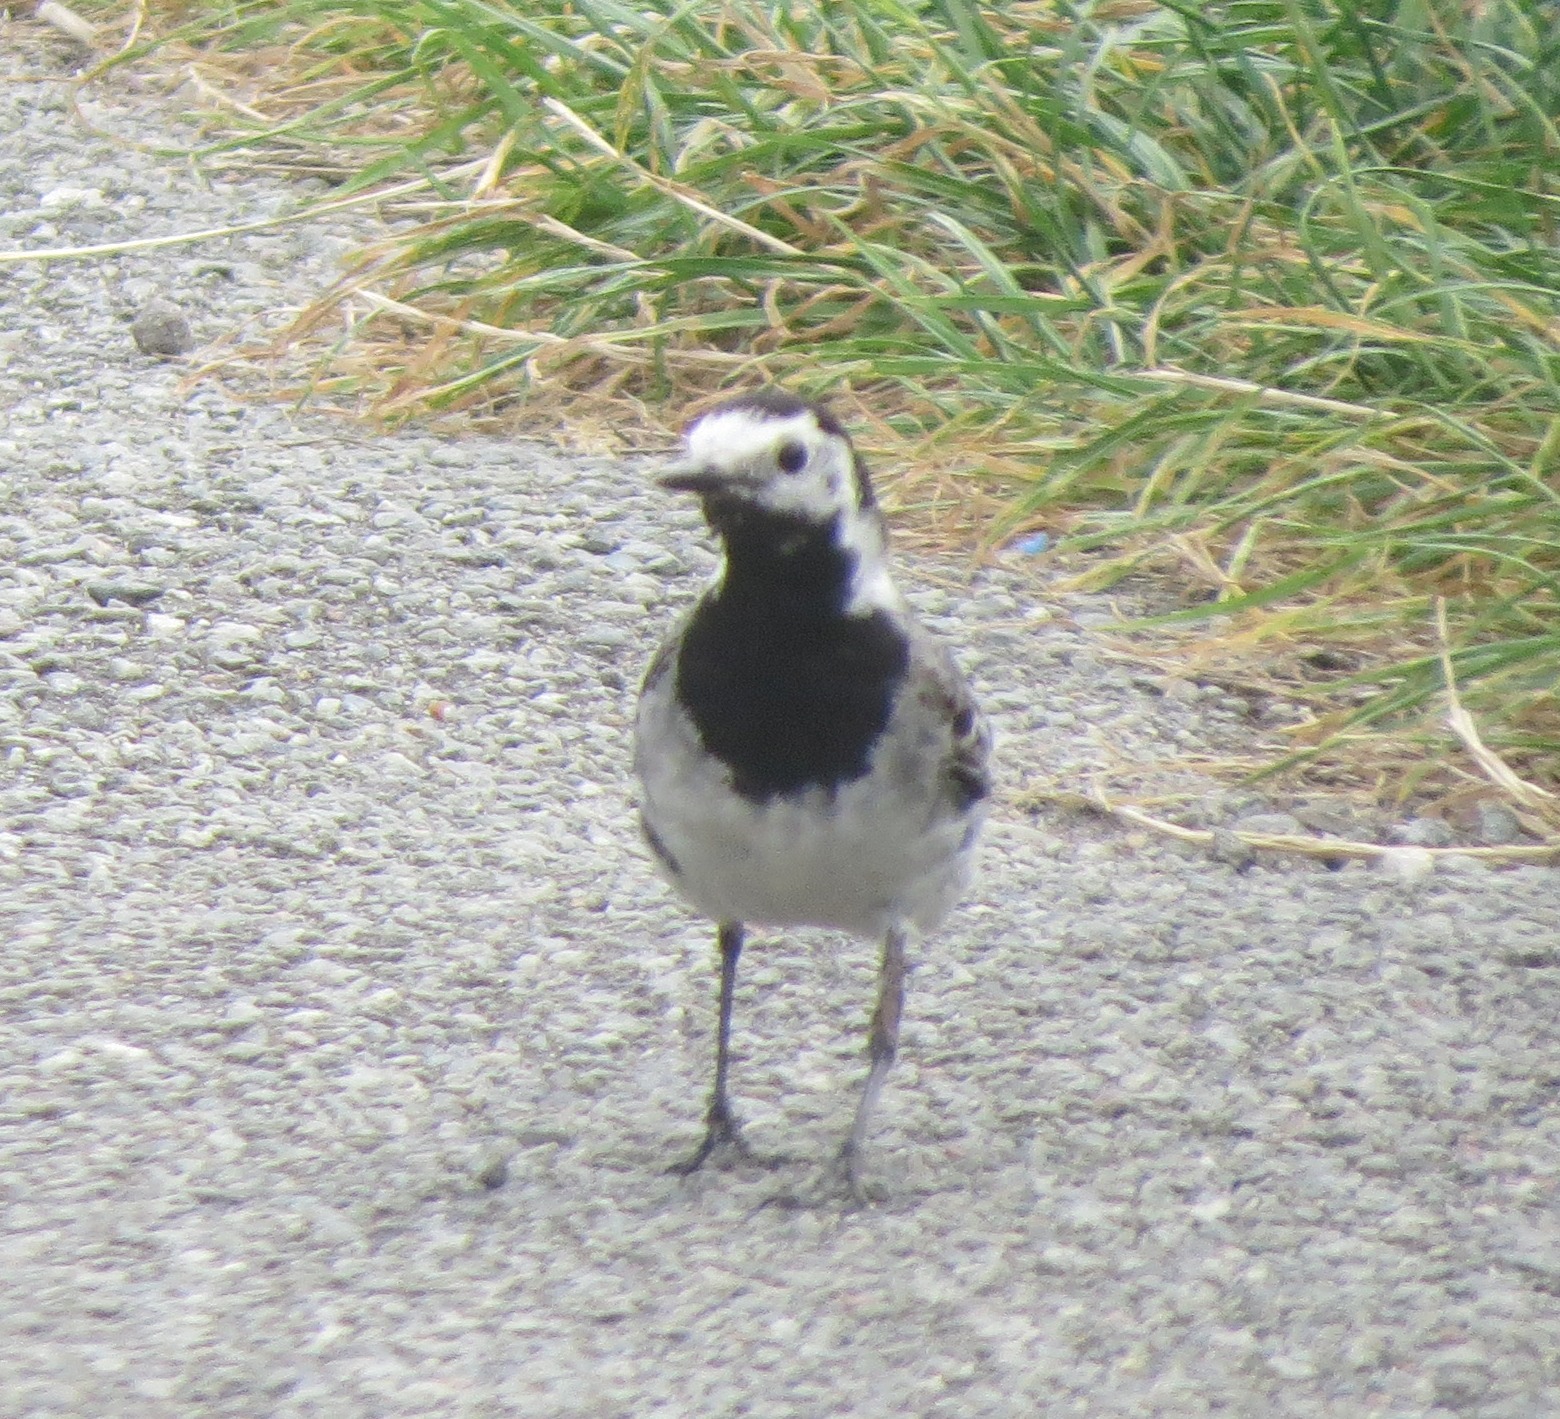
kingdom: Animalia
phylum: Chordata
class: Aves
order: Passeriformes
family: Motacillidae
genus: Motacilla
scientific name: Motacilla alba
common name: White wagtail
